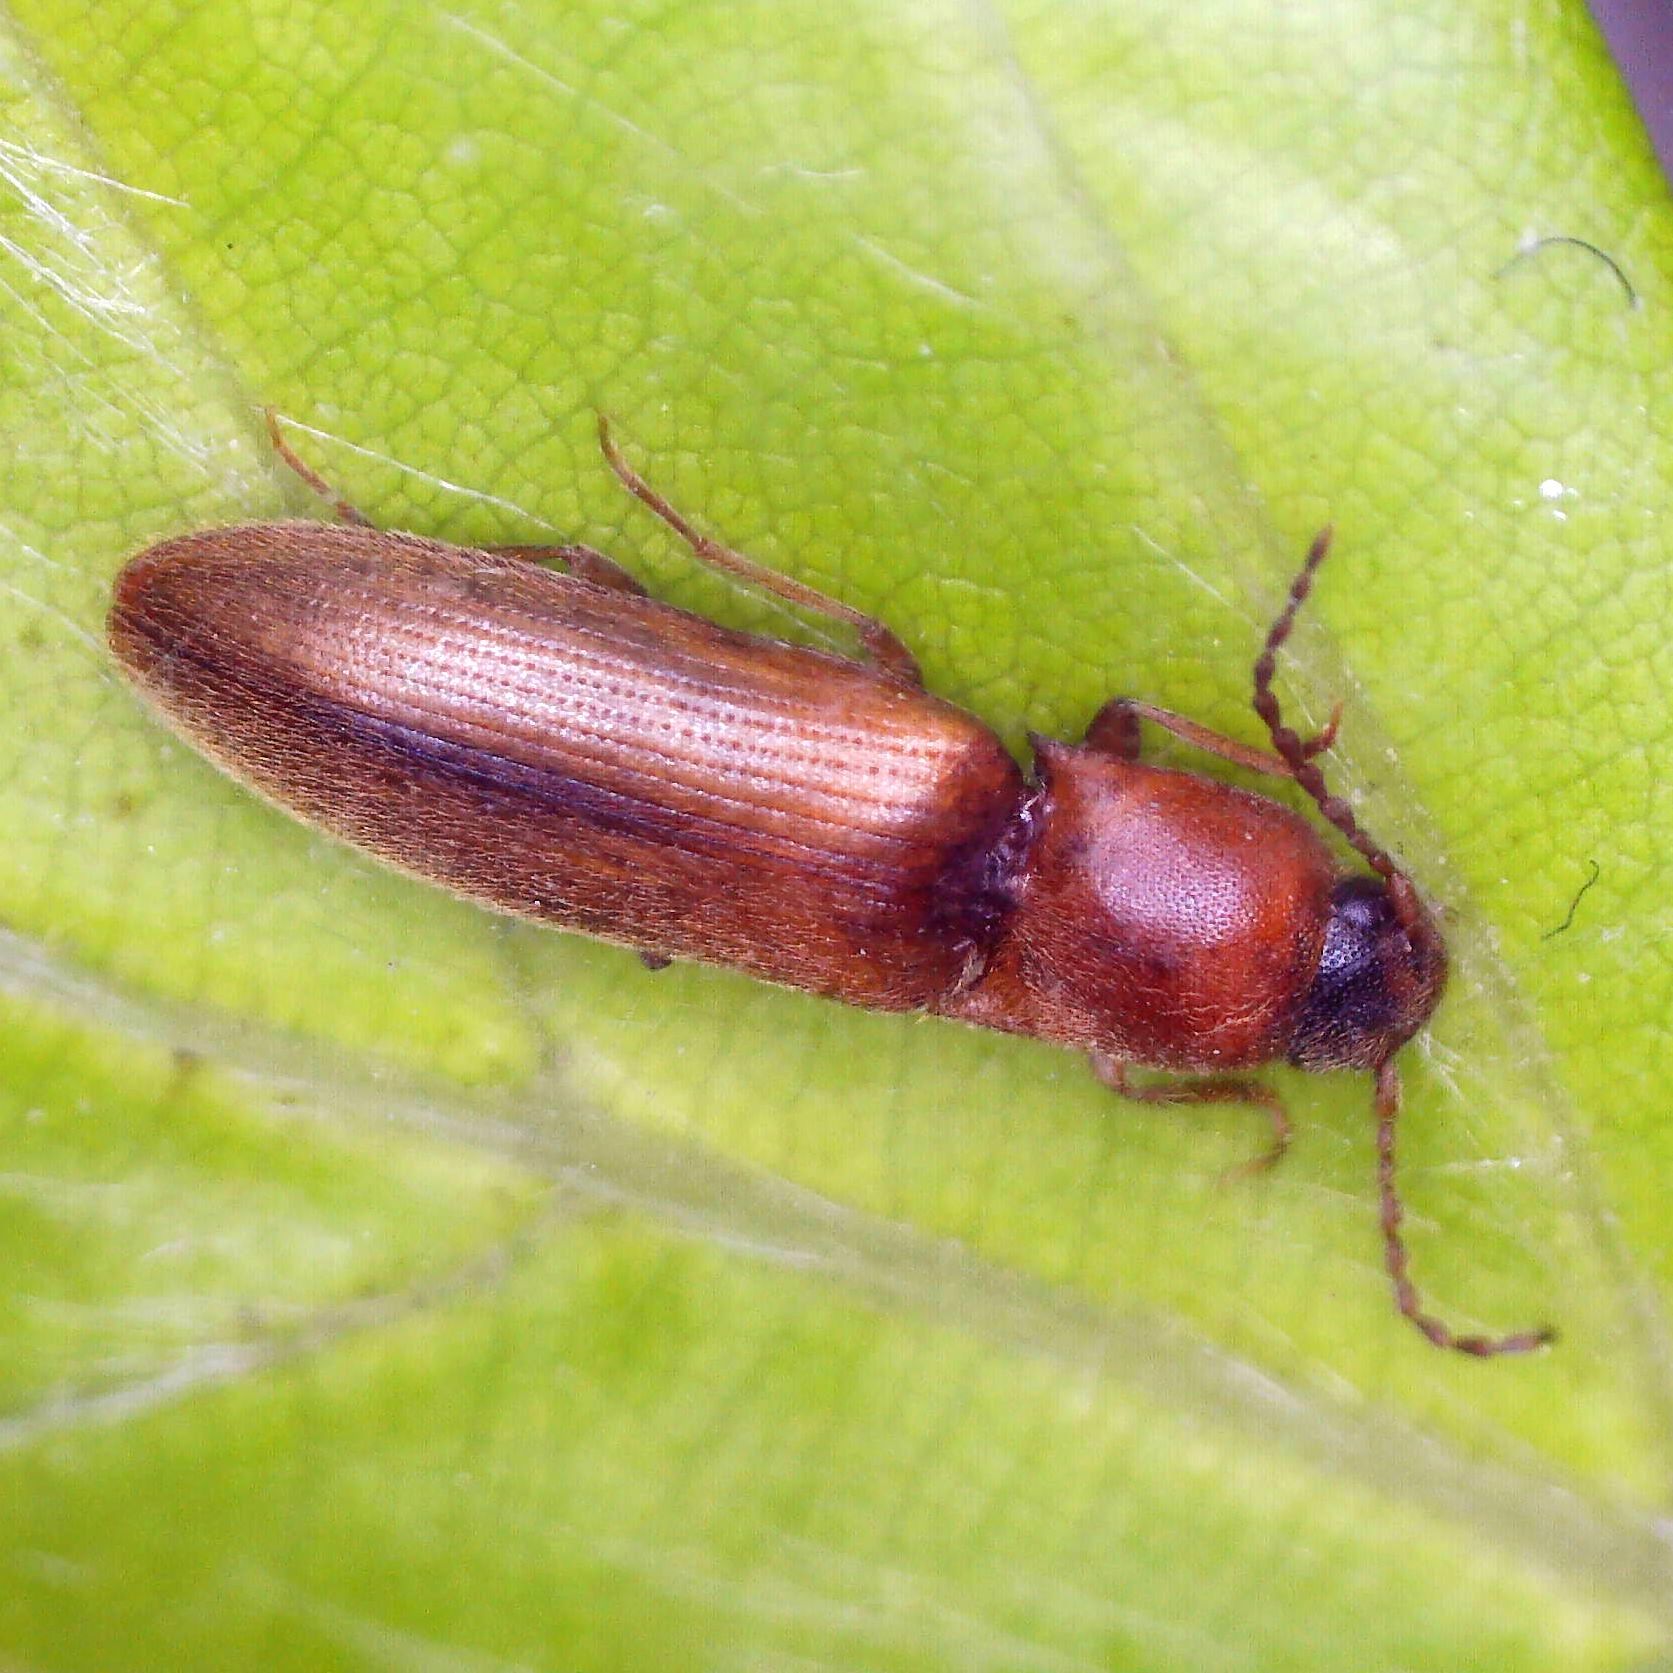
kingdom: Animalia
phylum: Arthropoda
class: Insecta
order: Coleoptera
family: Elateridae
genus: Dalopius
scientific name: Dalopius marginatus
